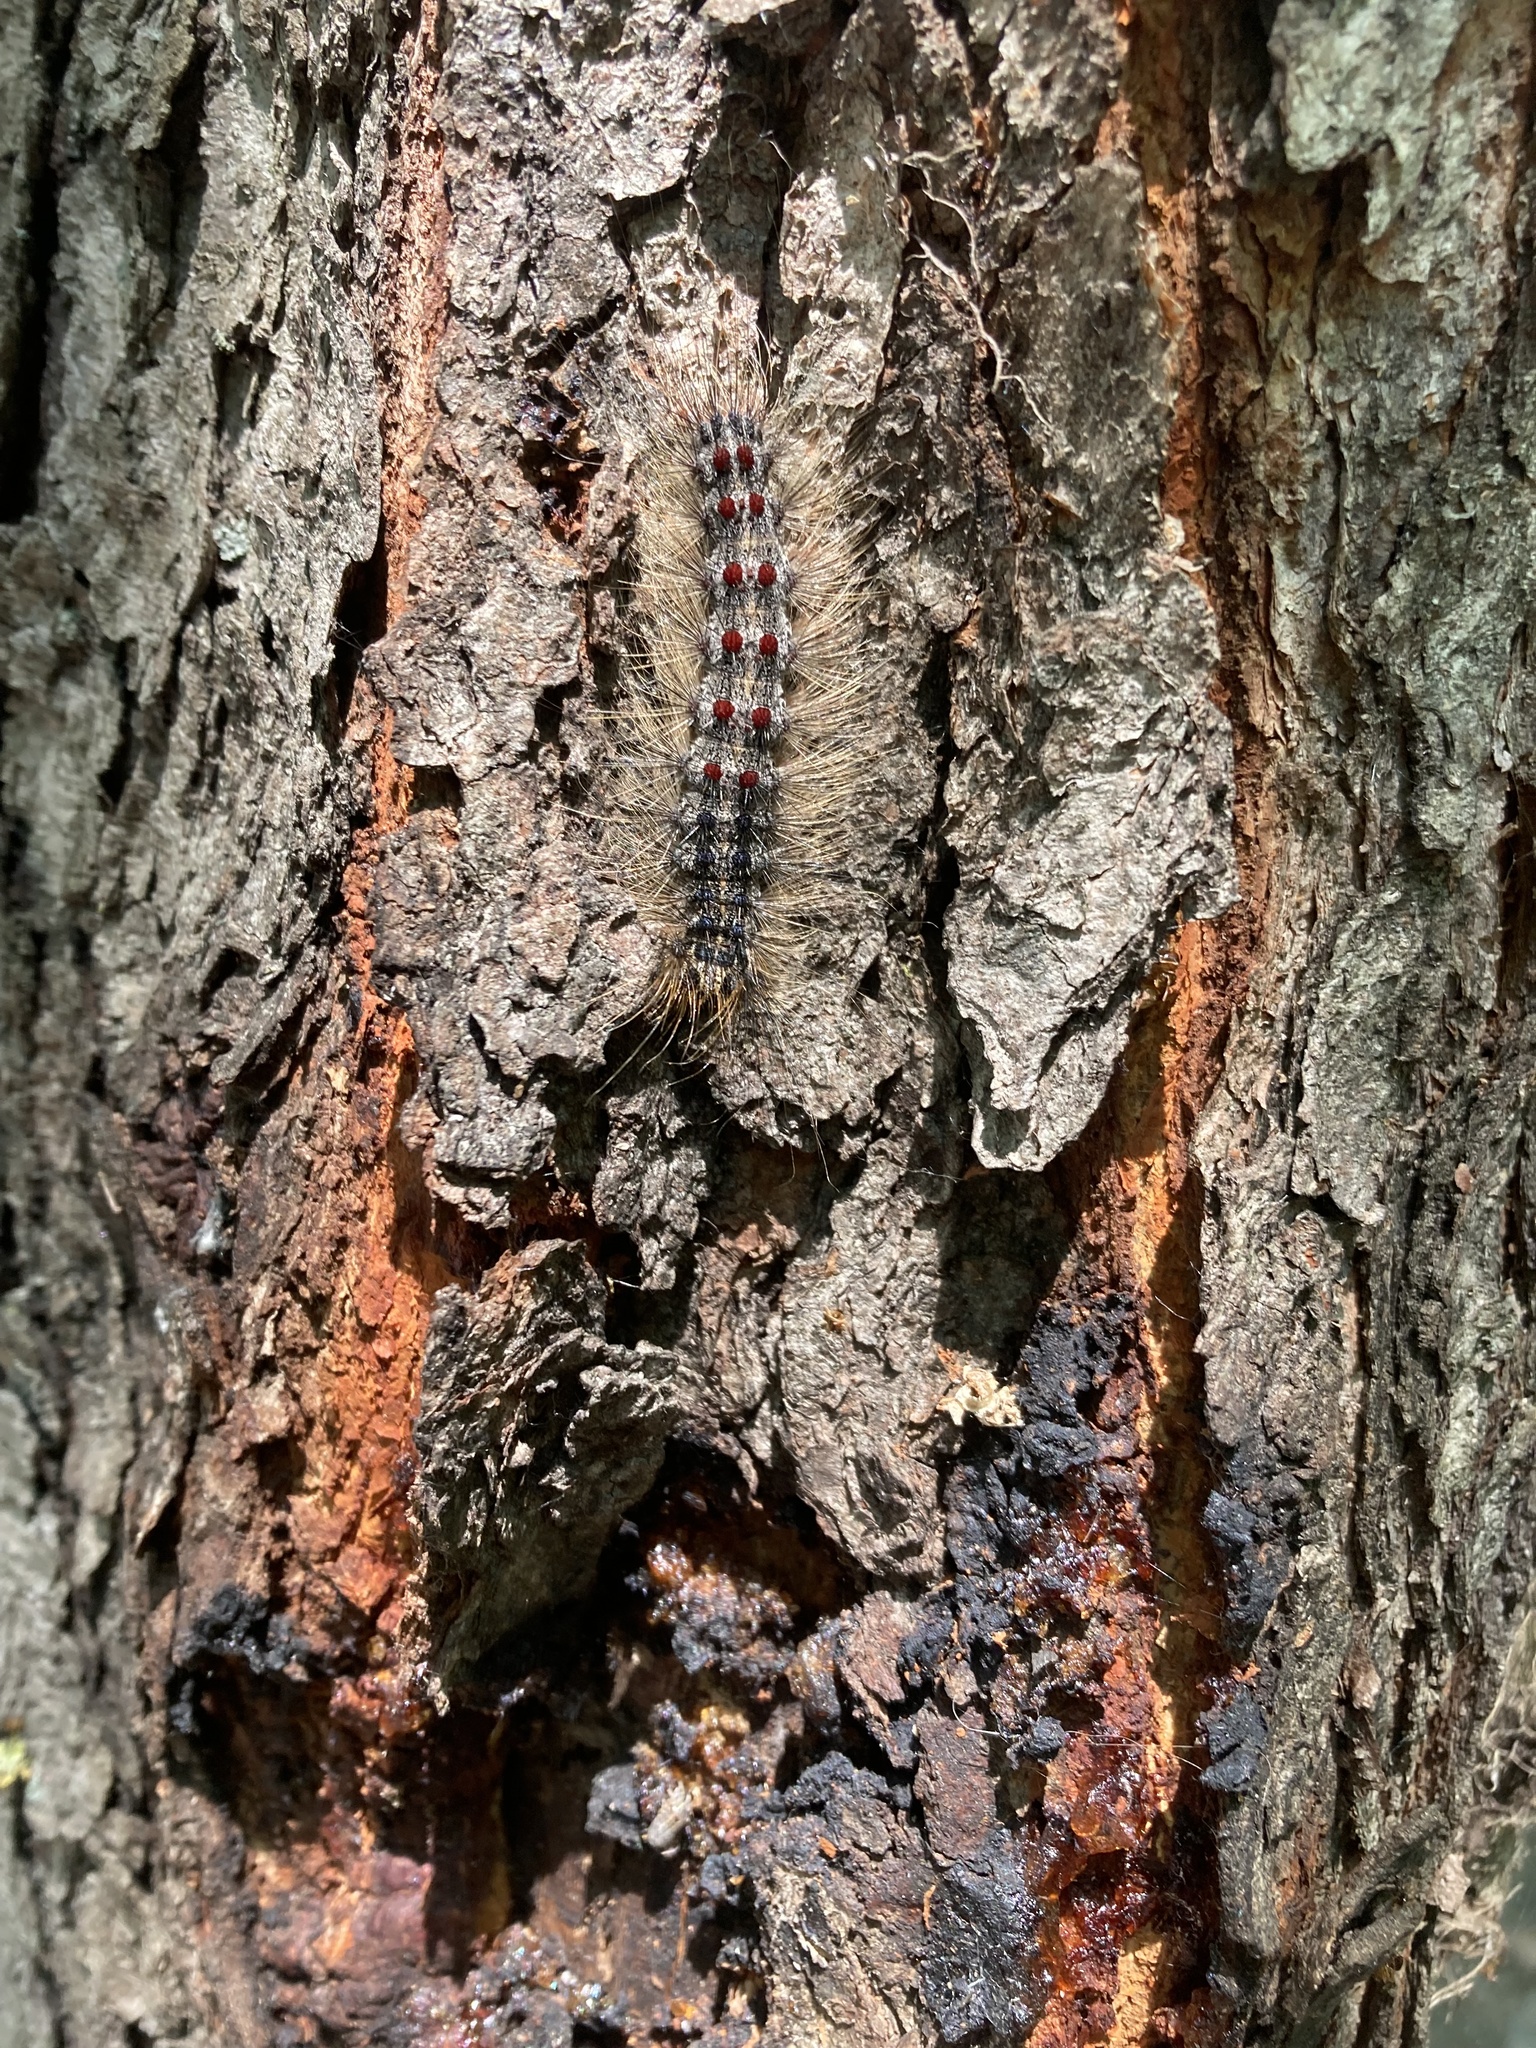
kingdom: Animalia
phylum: Arthropoda
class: Insecta
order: Lepidoptera
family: Erebidae
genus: Lymantria
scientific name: Lymantria dispar
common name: Gypsy moth
